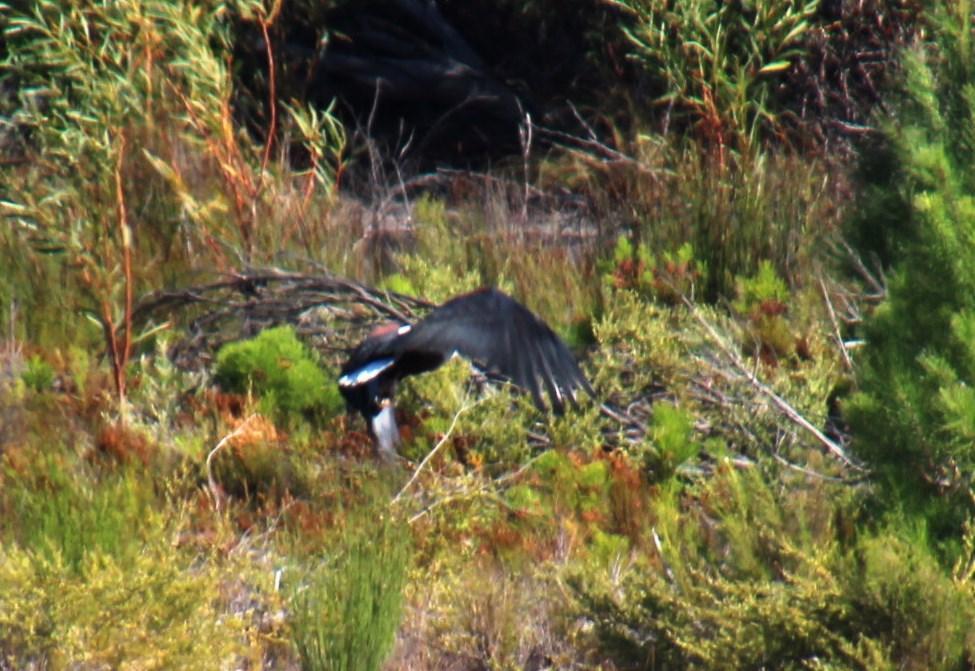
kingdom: Animalia
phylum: Chordata
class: Aves
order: Accipitriformes
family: Accipitridae
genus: Haliaeetus
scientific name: Haliaeetus vocifer
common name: African fish eagle
